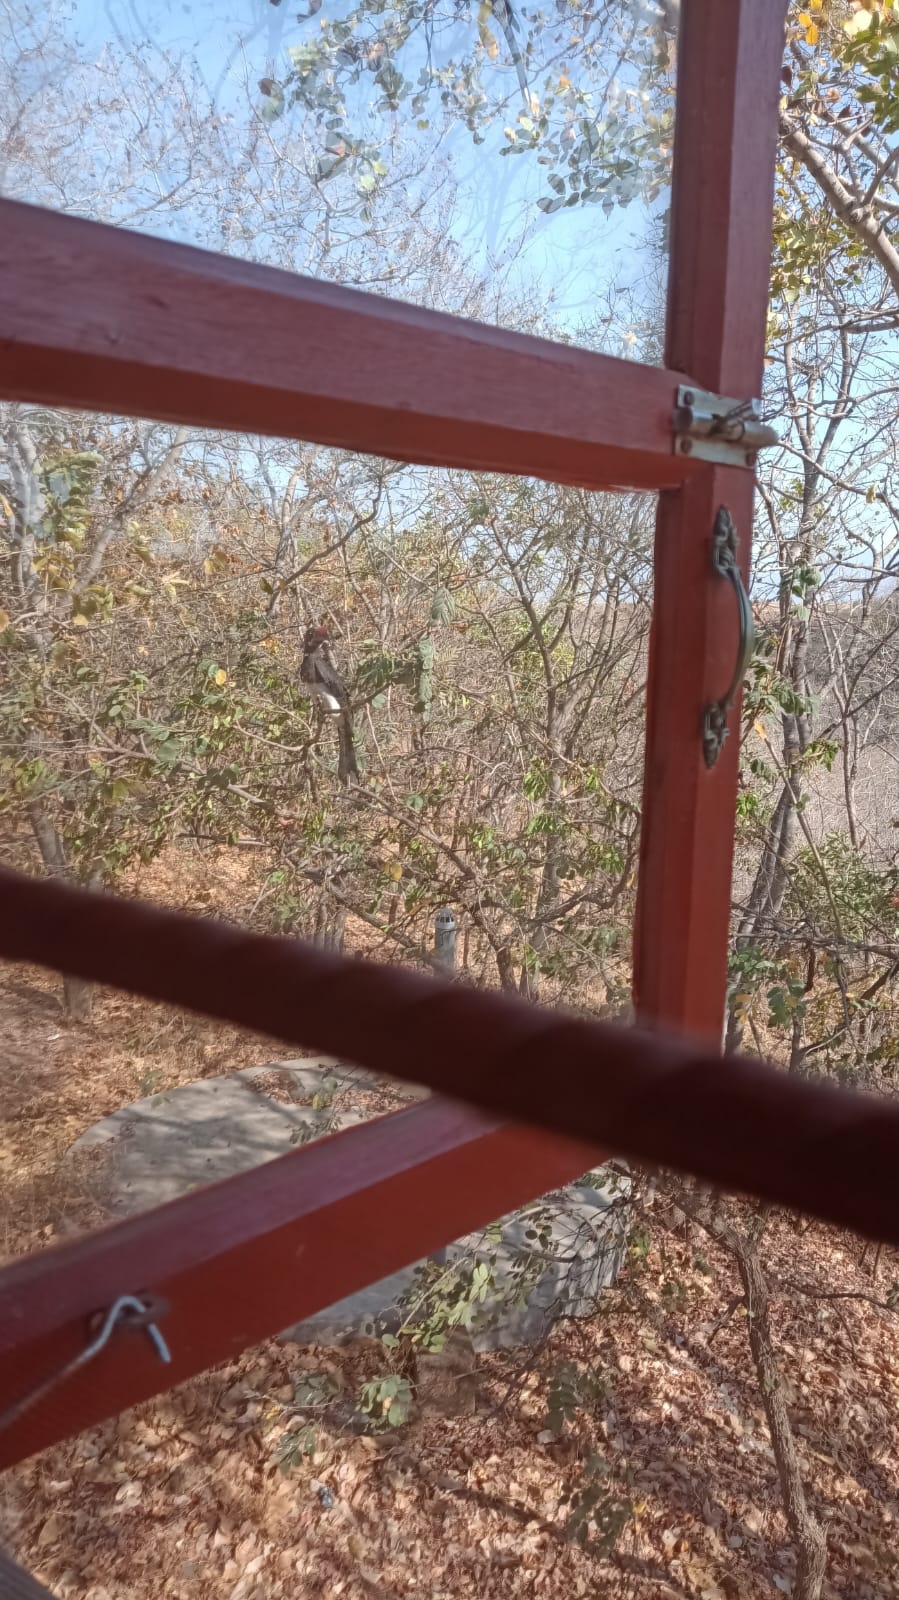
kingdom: Animalia
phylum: Chordata
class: Aves
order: Bucerotiformes
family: Bucerotidae
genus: Lophoceros
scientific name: Lophoceros alboterminatus
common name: Crowned hornbill
